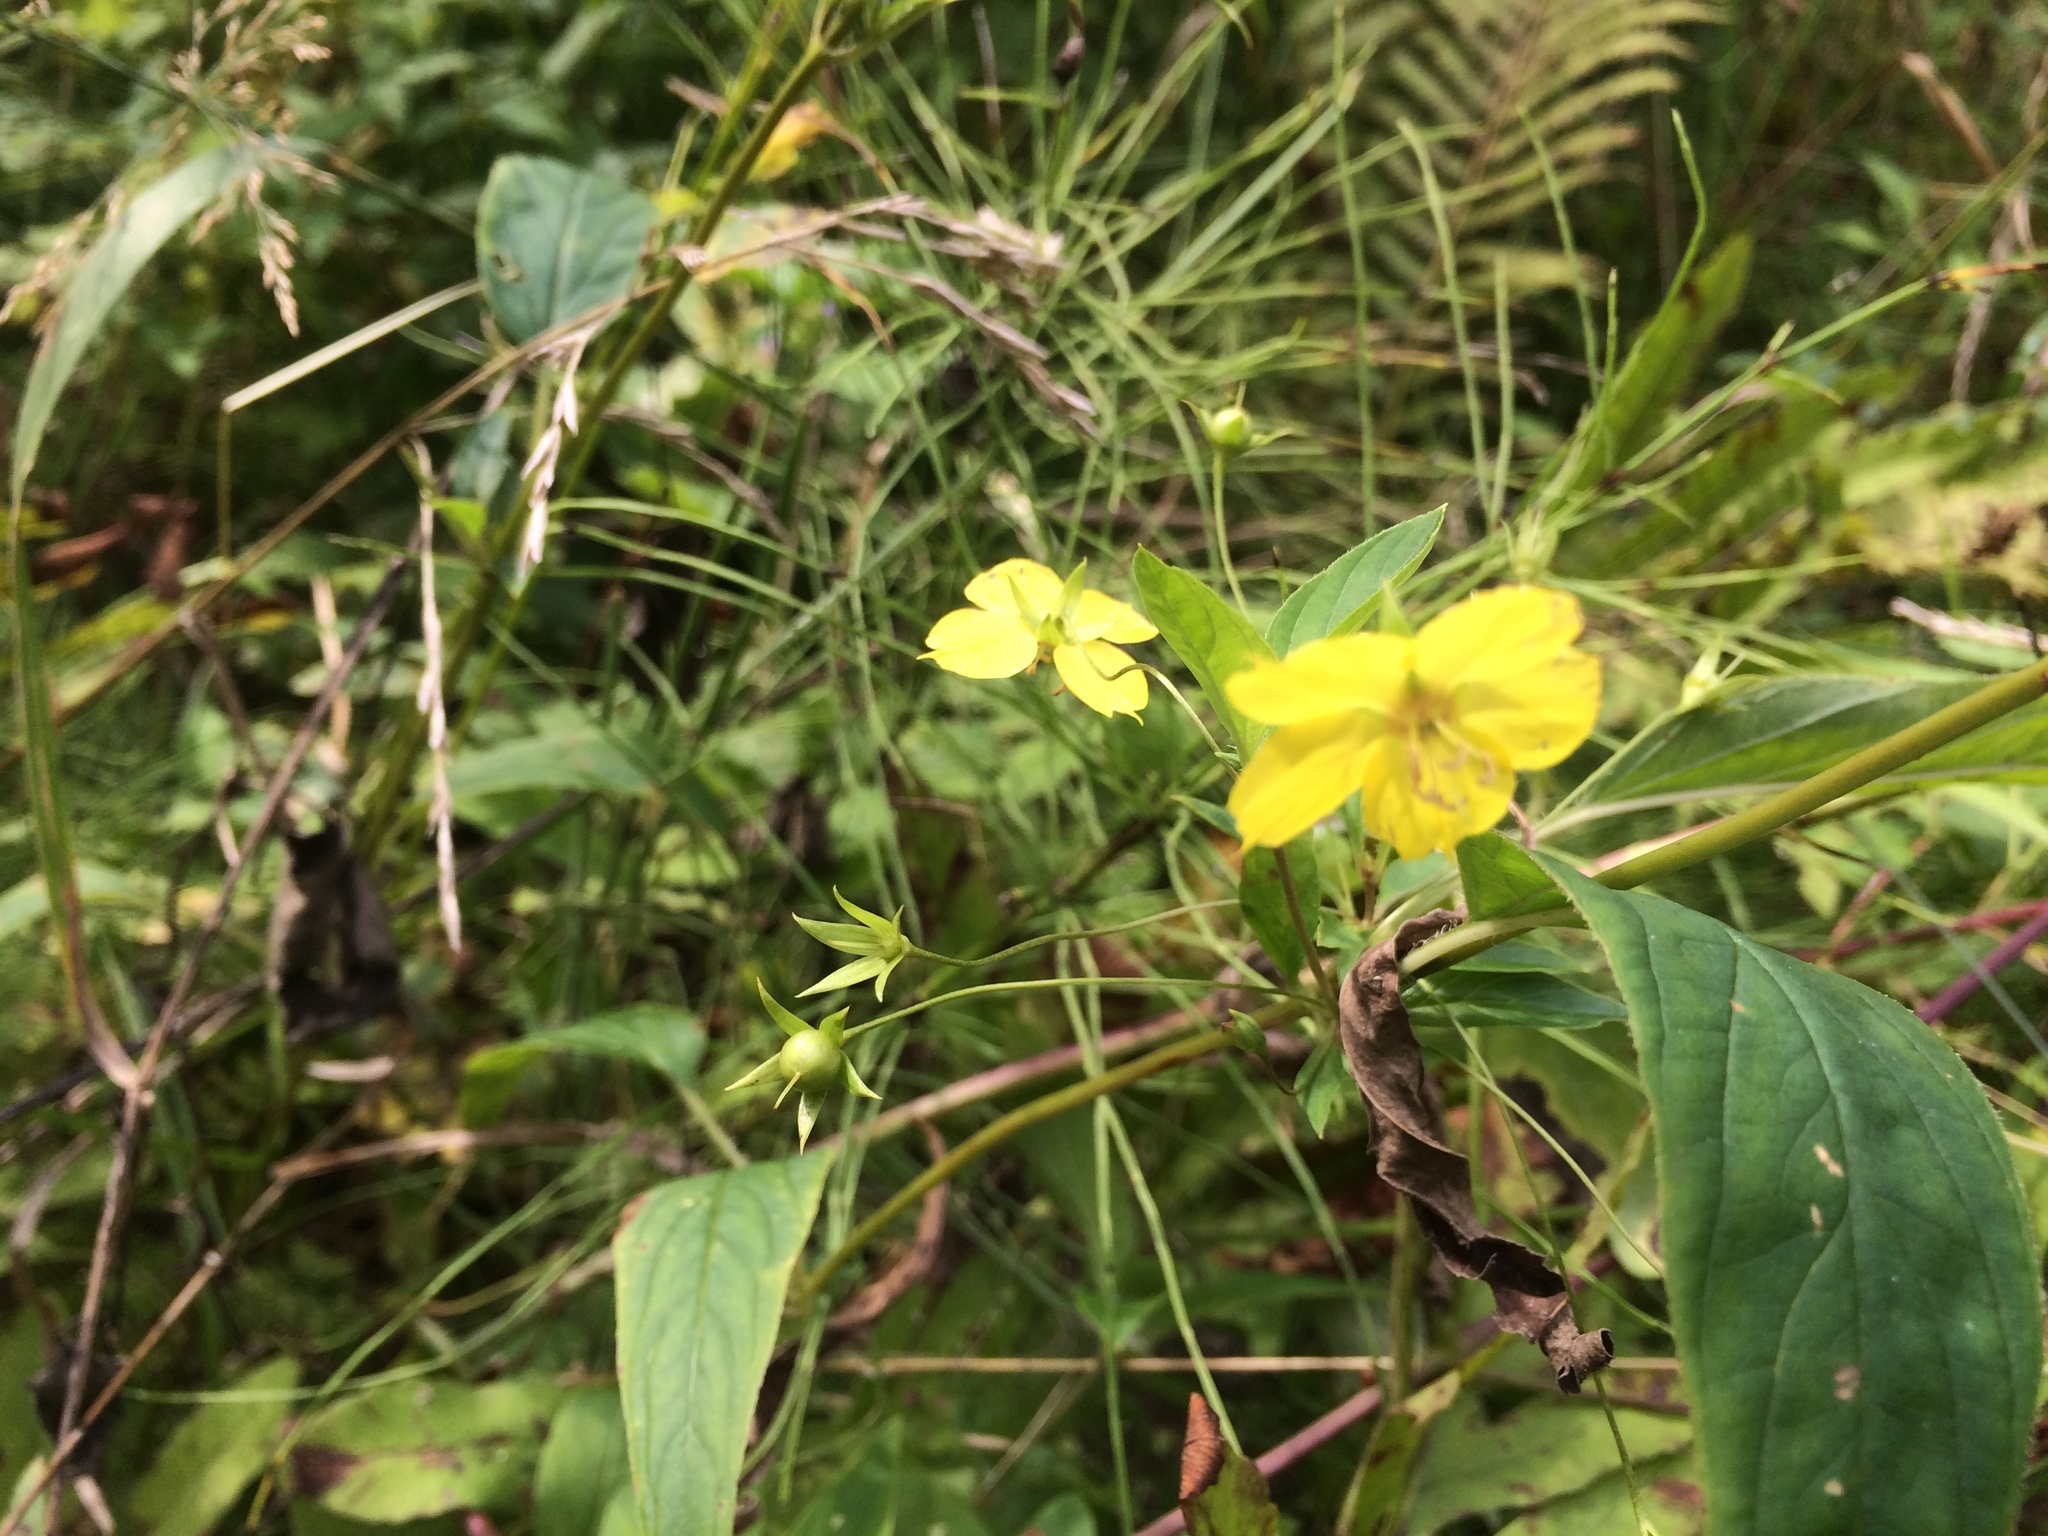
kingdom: Plantae
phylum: Tracheophyta
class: Magnoliopsida
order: Ericales
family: Primulaceae
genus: Lysimachia
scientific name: Lysimachia ciliata
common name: Fringed loosestrife
